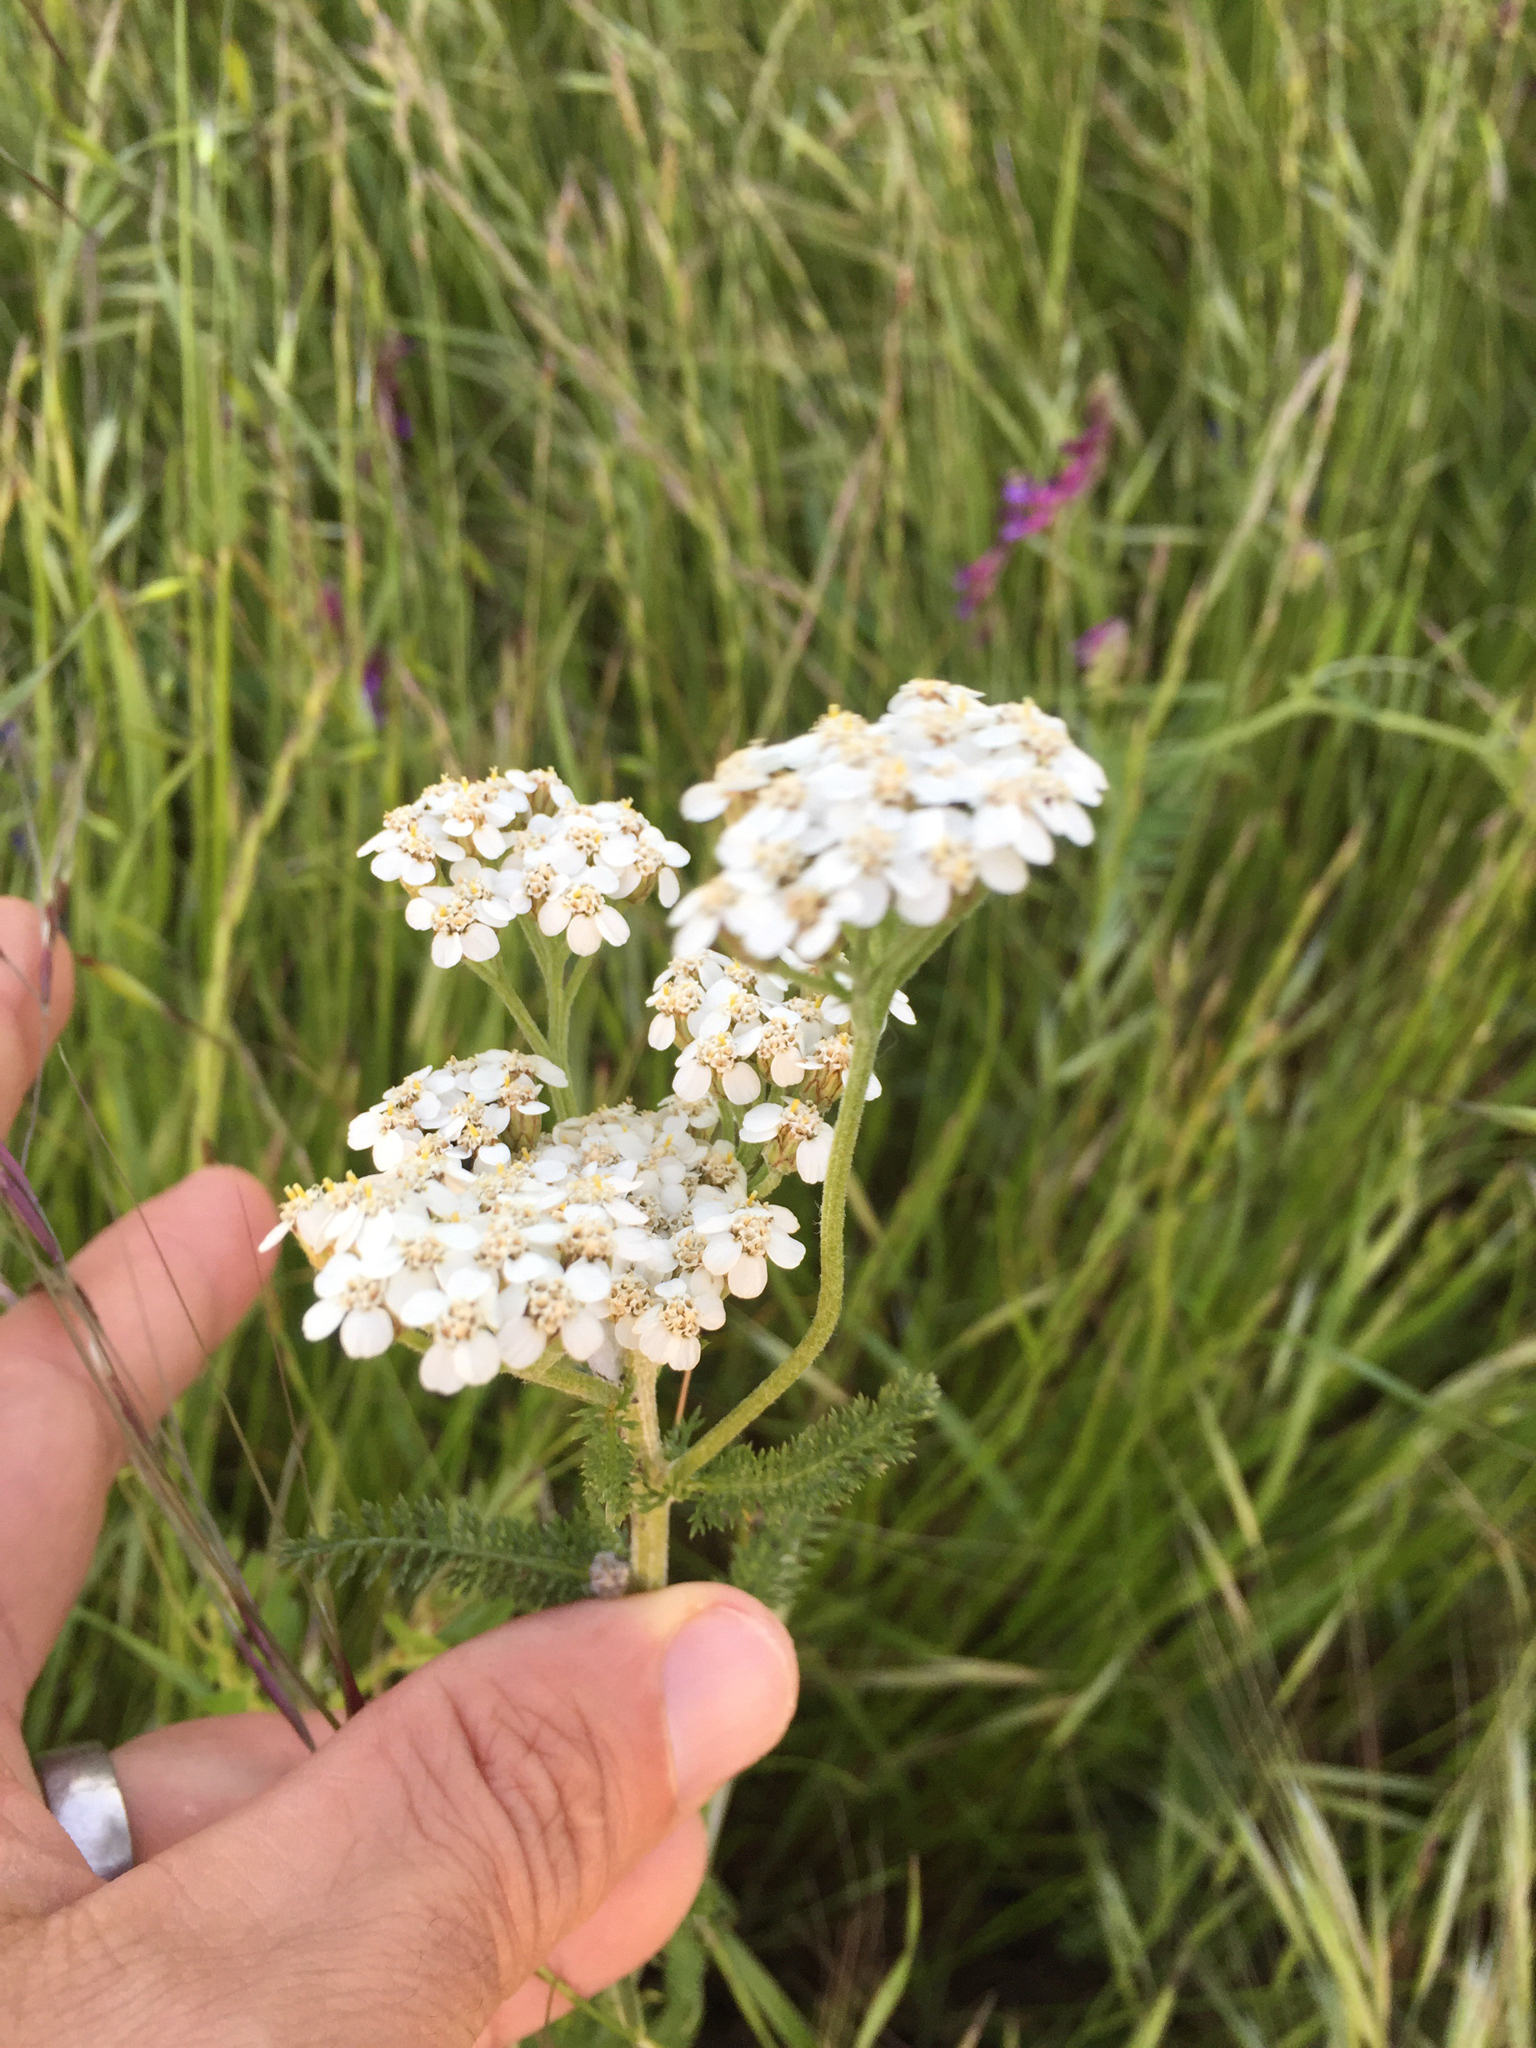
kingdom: Plantae
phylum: Tracheophyta
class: Magnoliopsida
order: Asterales
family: Asteraceae
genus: Achillea
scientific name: Achillea millefolium
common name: Yarrow
